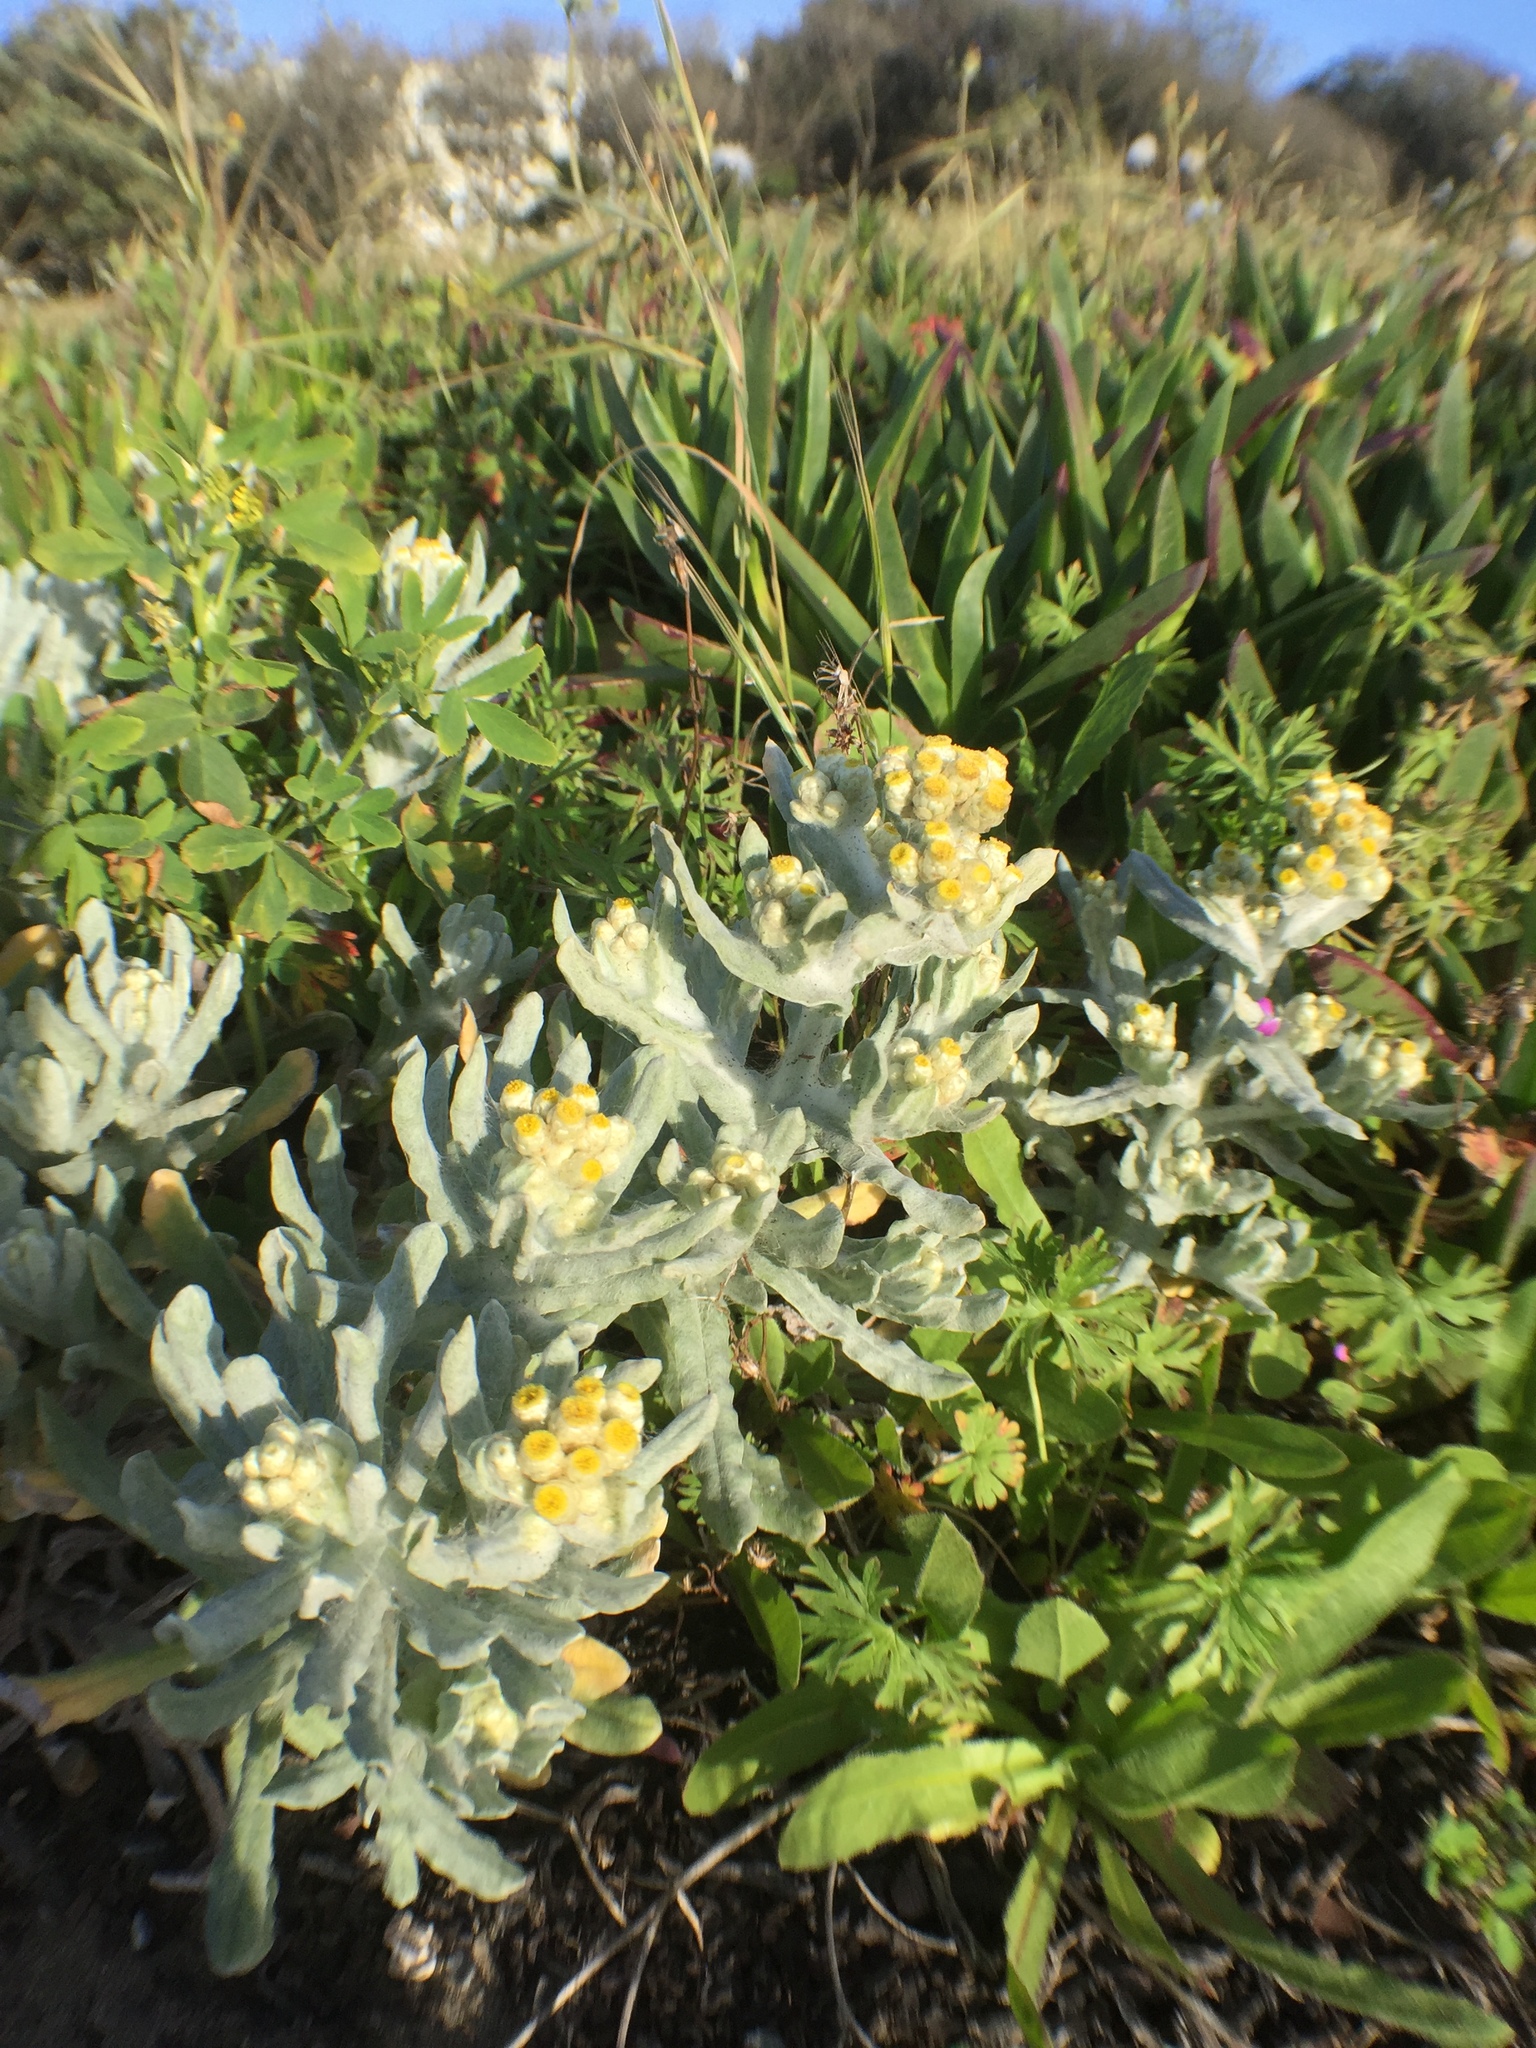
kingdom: Plantae
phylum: Tracheophyta
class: Magnoliopsida
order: Asterales
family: Asteraceae
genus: Pseudognaphalium
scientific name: Pseudognaphalium stramineum
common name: Cotton-batting-plant
